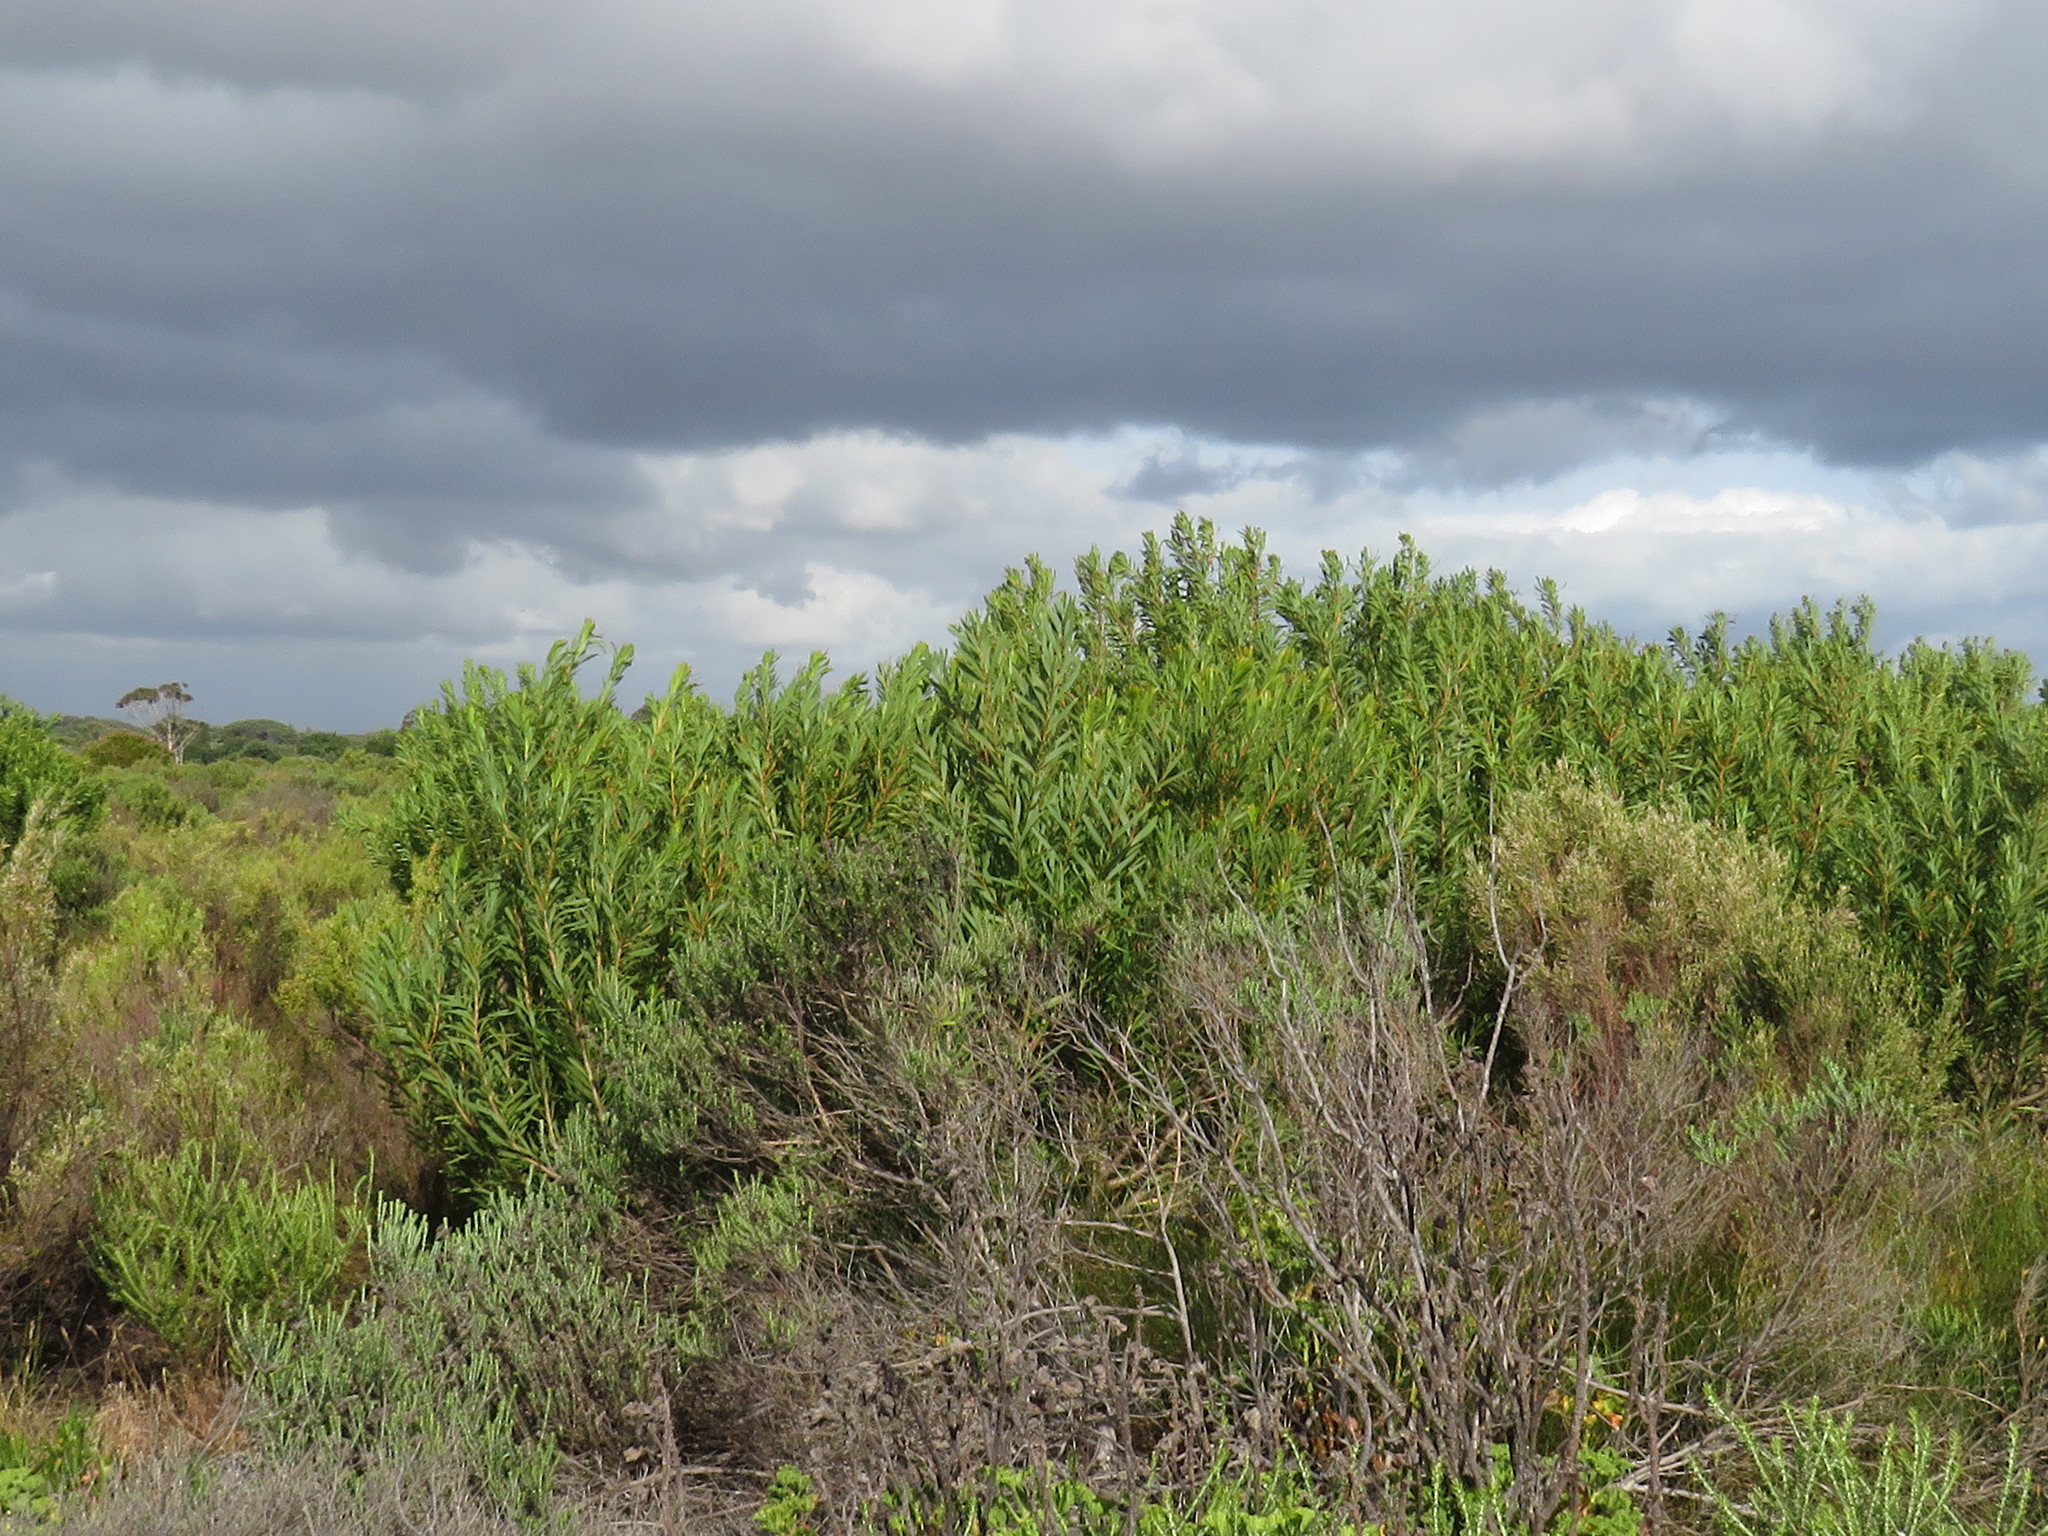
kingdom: Plantae
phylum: Tracheophyta
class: Magnoliopsida
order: Fabales
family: Fabaceae
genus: Acacia
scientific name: Acacia longifolia
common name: Sydney golden wattle
